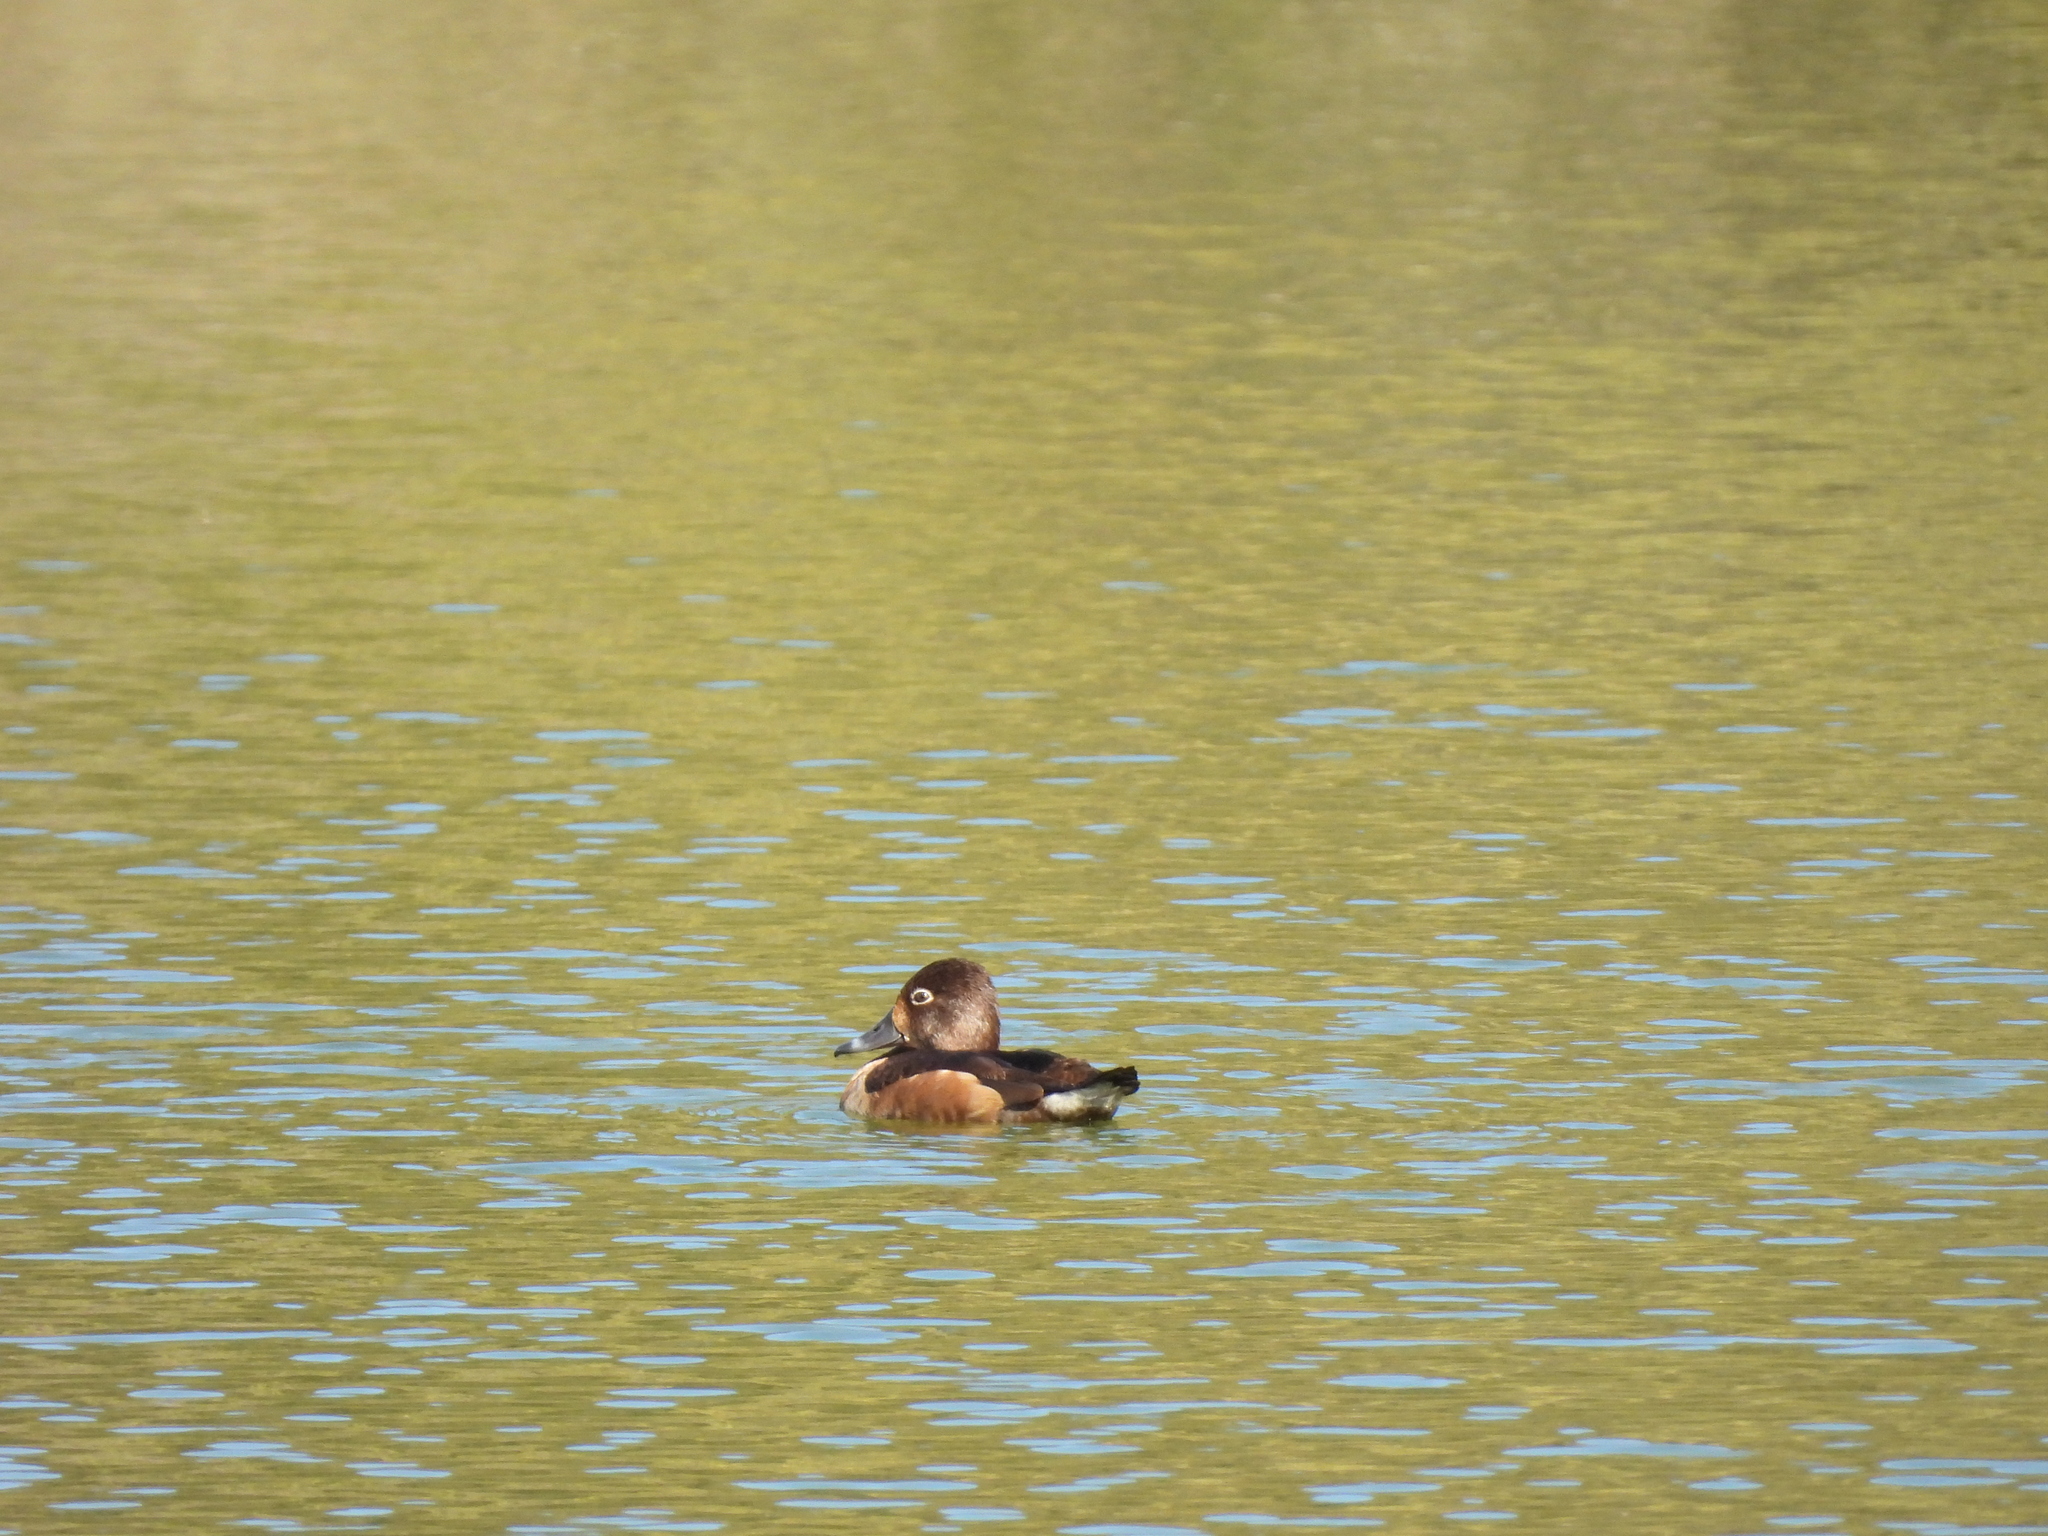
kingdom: Animalia
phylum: Chordata
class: Aves
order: Anseriformes
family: Anatidae
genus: Aythya
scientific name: Aythya collaris
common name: Ring-necked duck
